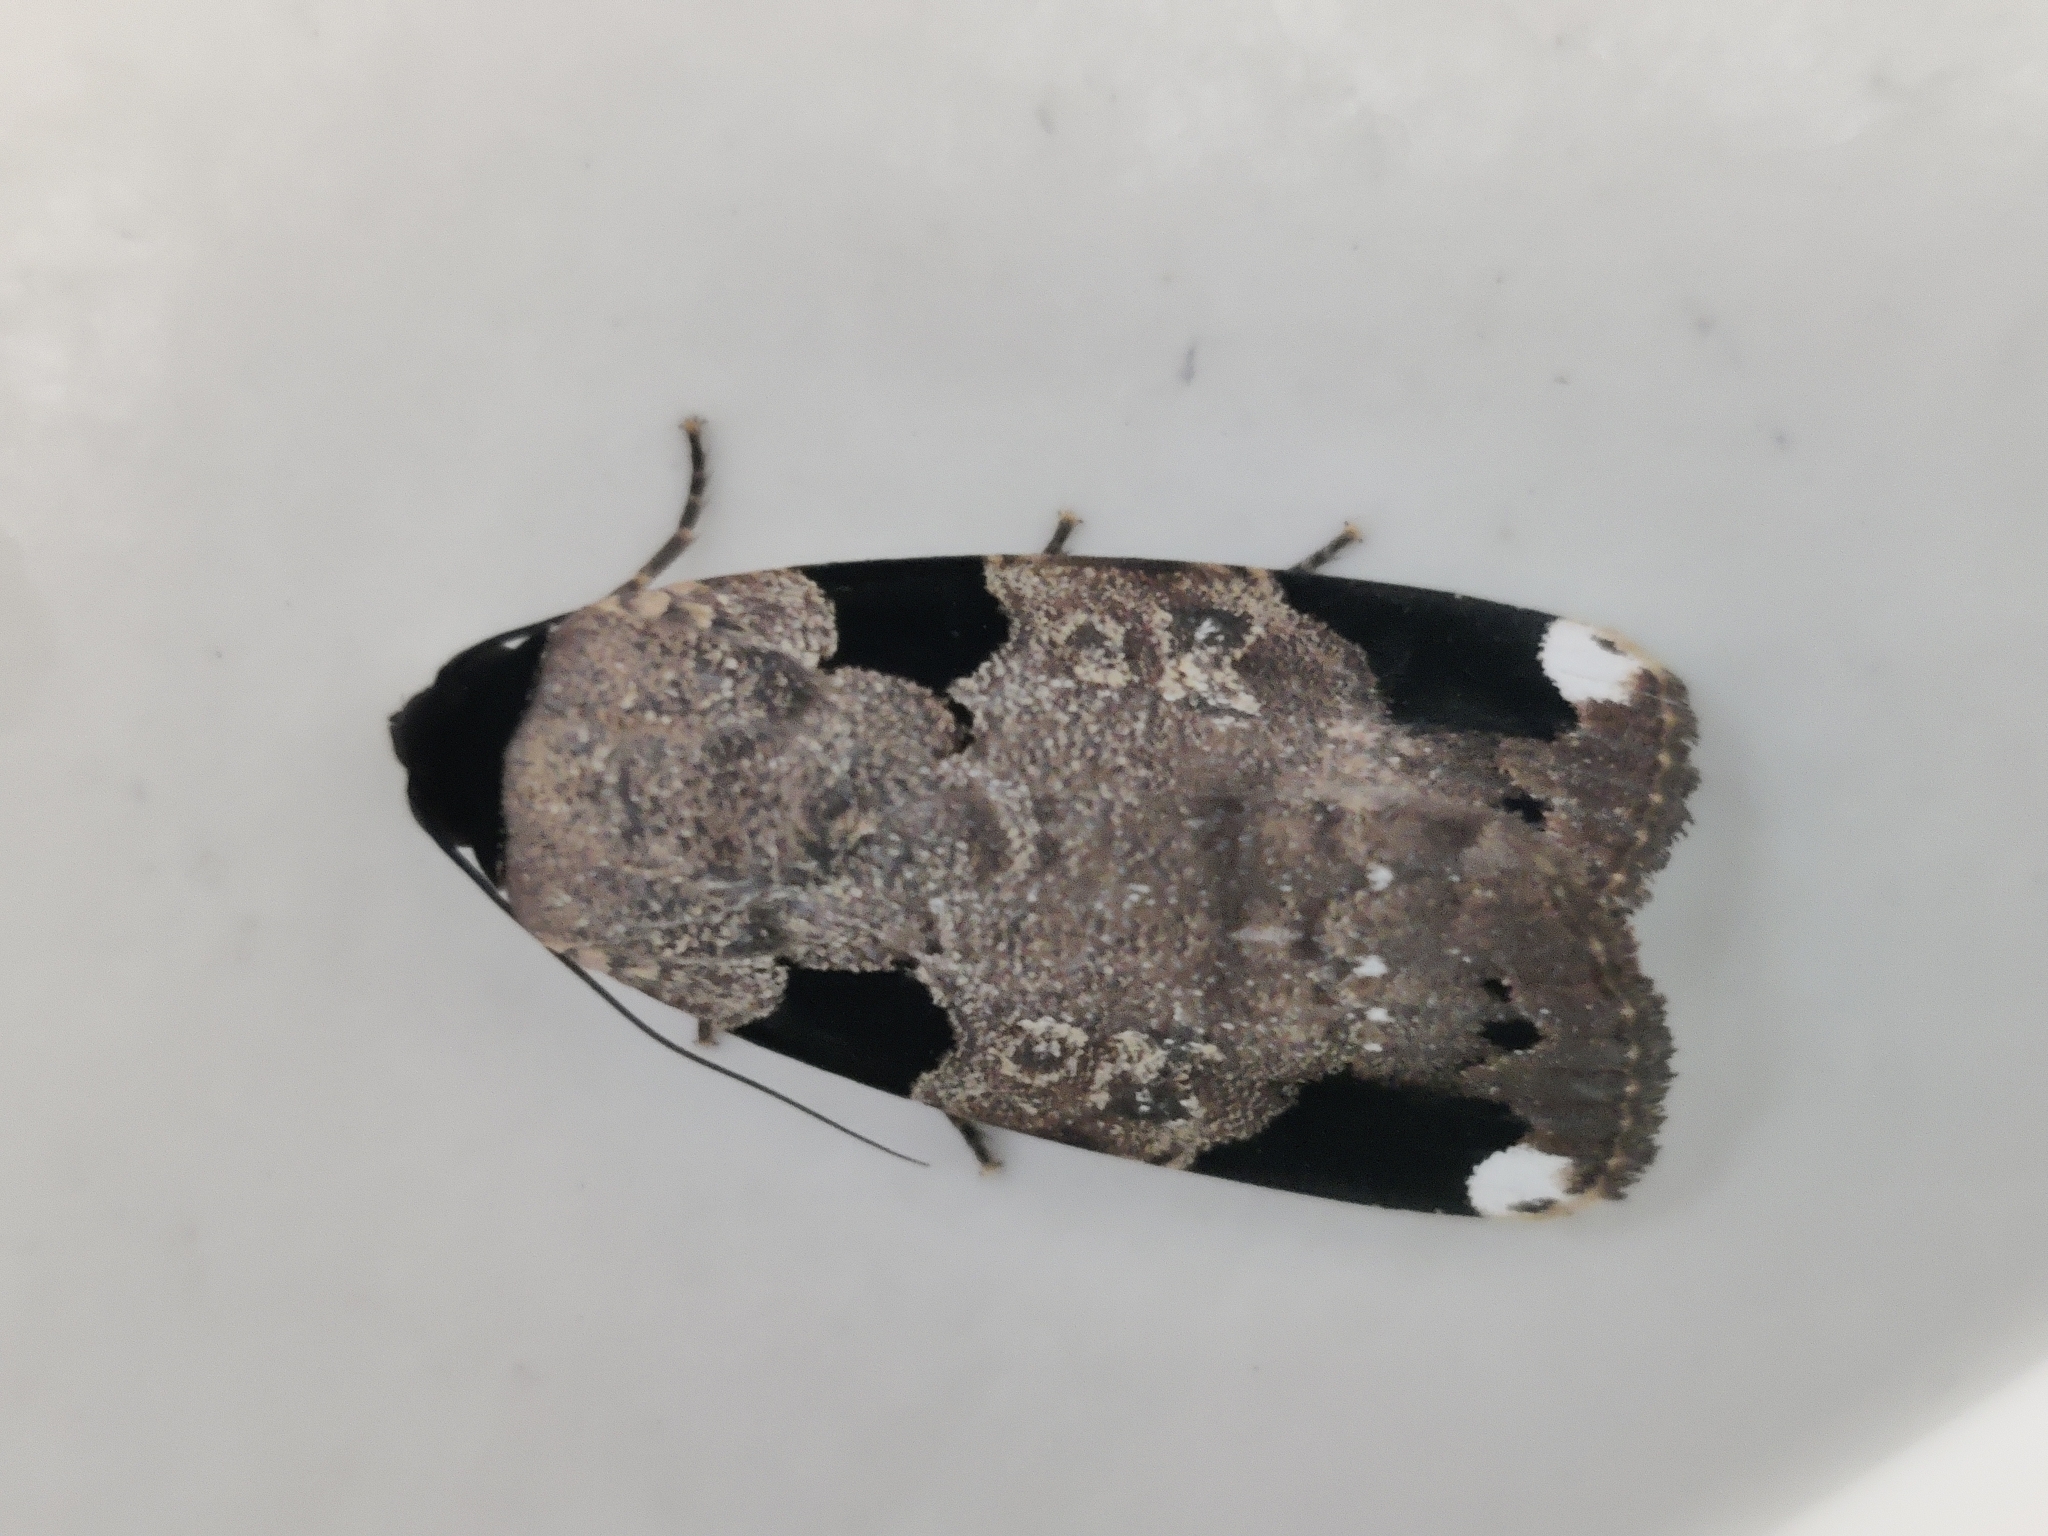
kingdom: Animalia
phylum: Arthropoda
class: Insecta
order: Lepidoptera
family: Noctuidae
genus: Callyna
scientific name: Callyna costiplaga
